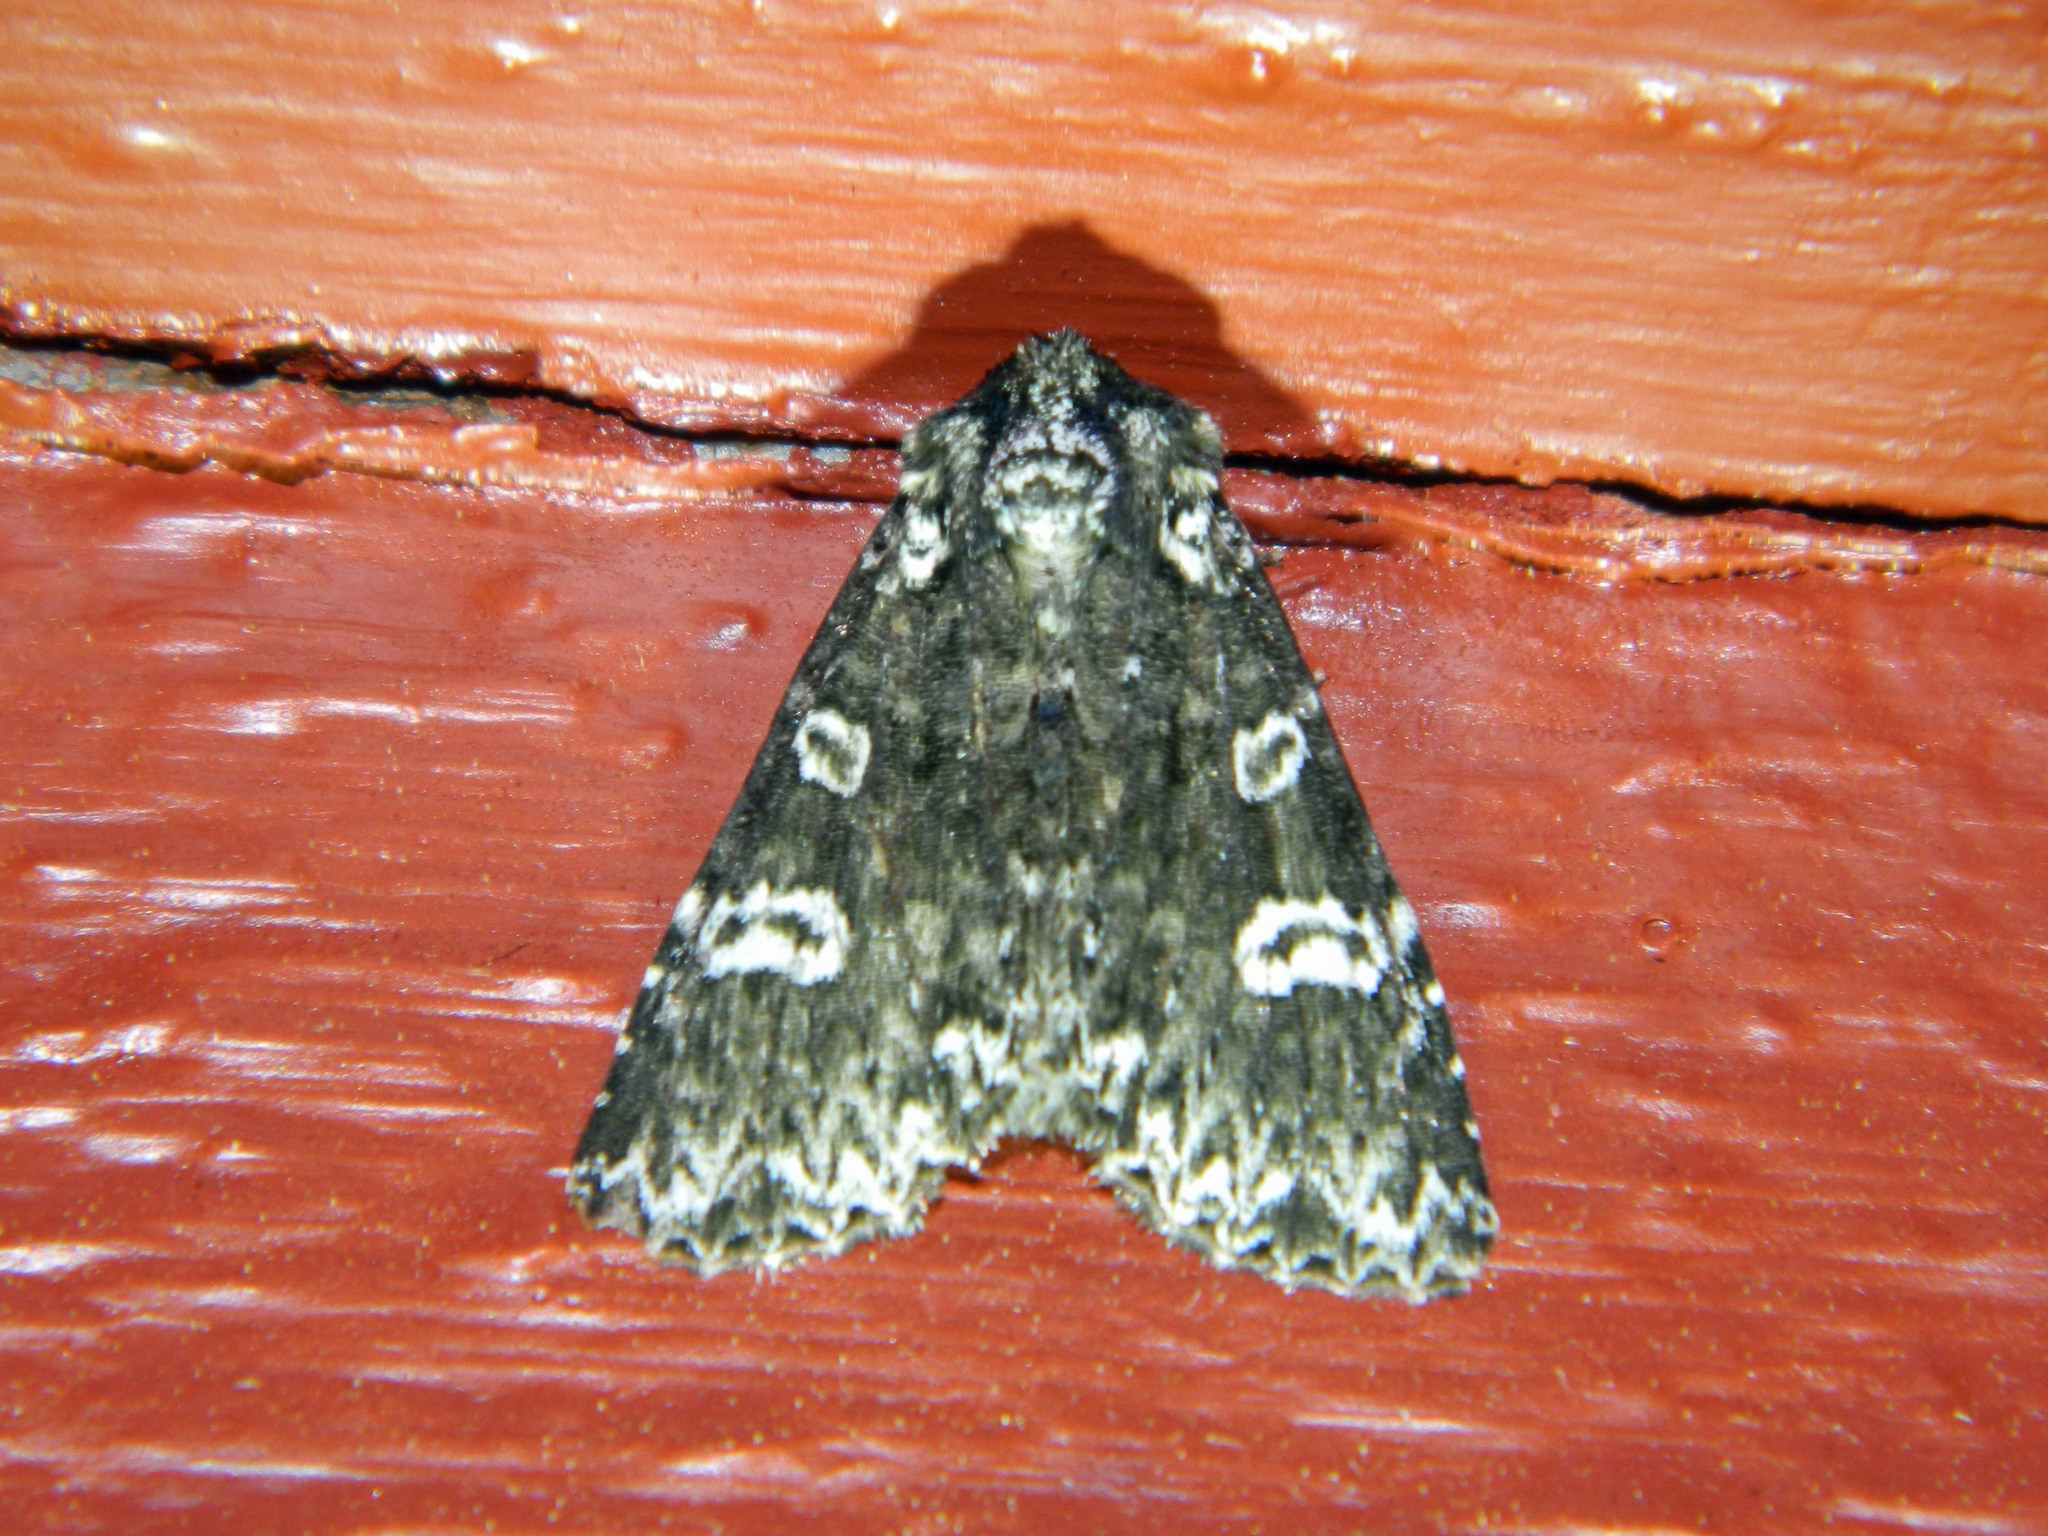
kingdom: Animalia
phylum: Arthropoda
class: Insecta
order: Lepidoptera
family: Noctuidae
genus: Melanchra
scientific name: Melanchra adjuncta
